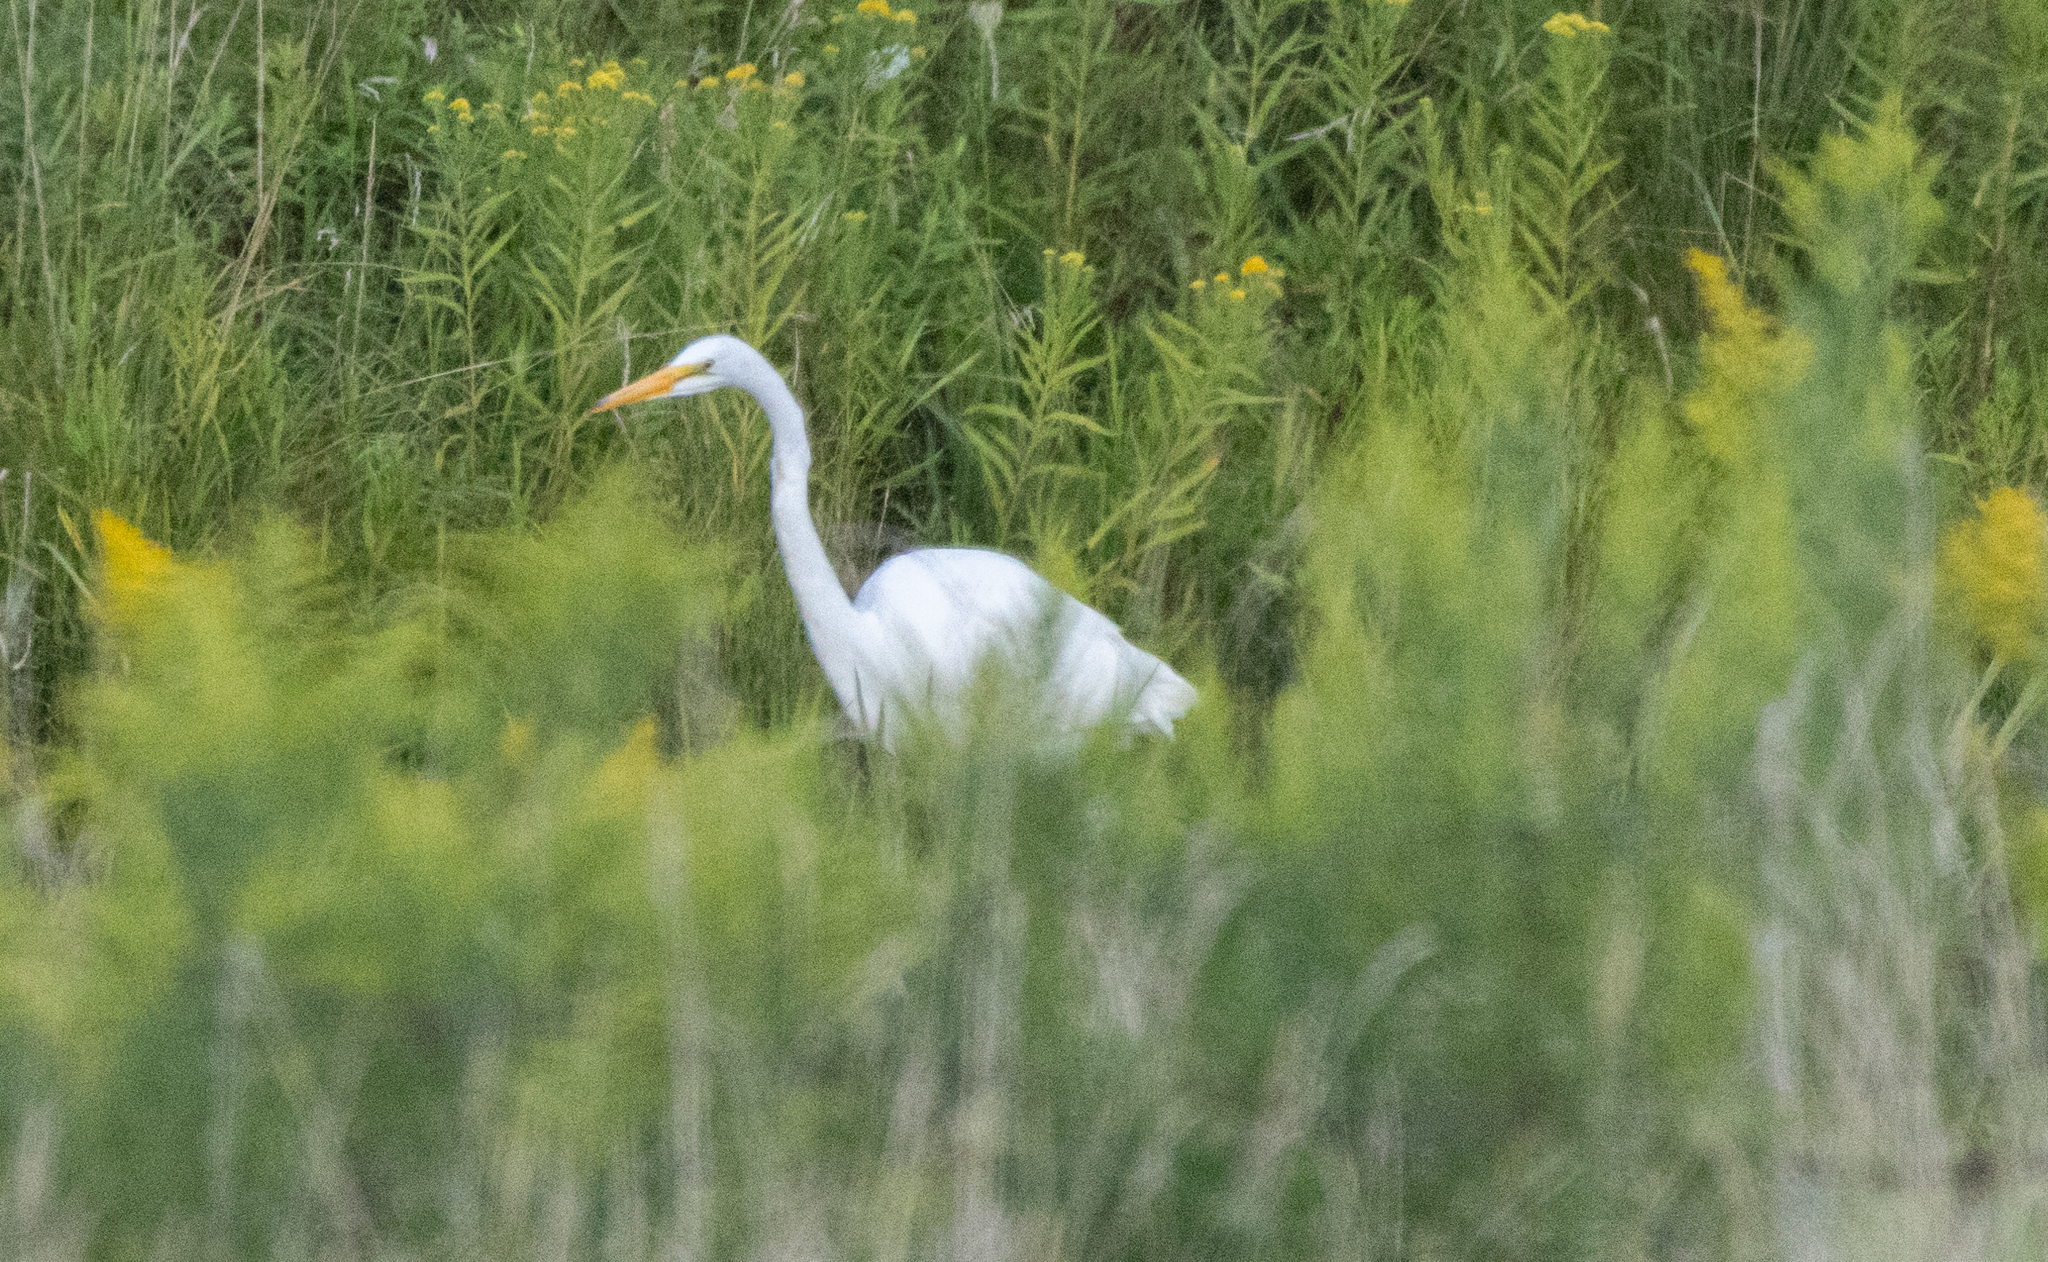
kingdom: Animalia
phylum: Chordata
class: Aves
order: Pelecaniformes
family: Ardeidae
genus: Ardea
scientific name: Ardea alba
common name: Great egret
